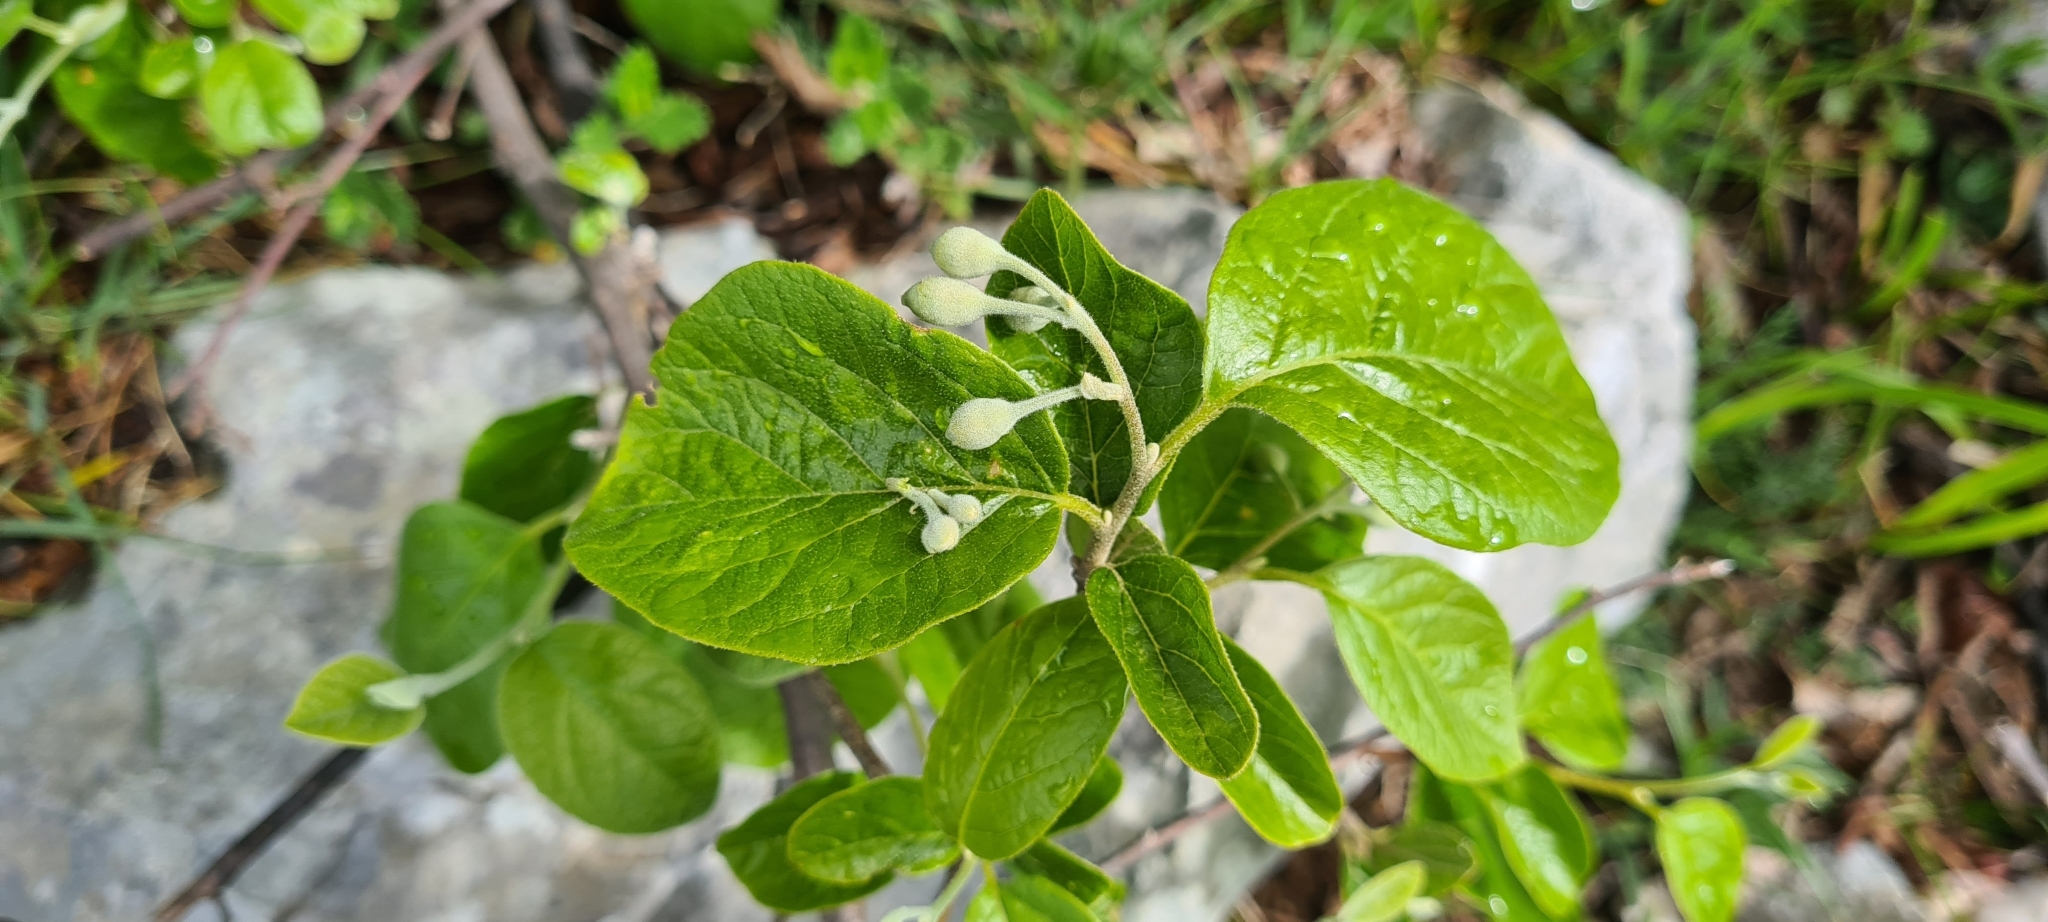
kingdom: Plantae
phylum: Tracheophyta
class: Magnoliopsida
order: Ericales
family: Styracaceae
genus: Styrax
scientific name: Styrax officinalis
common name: Storax
